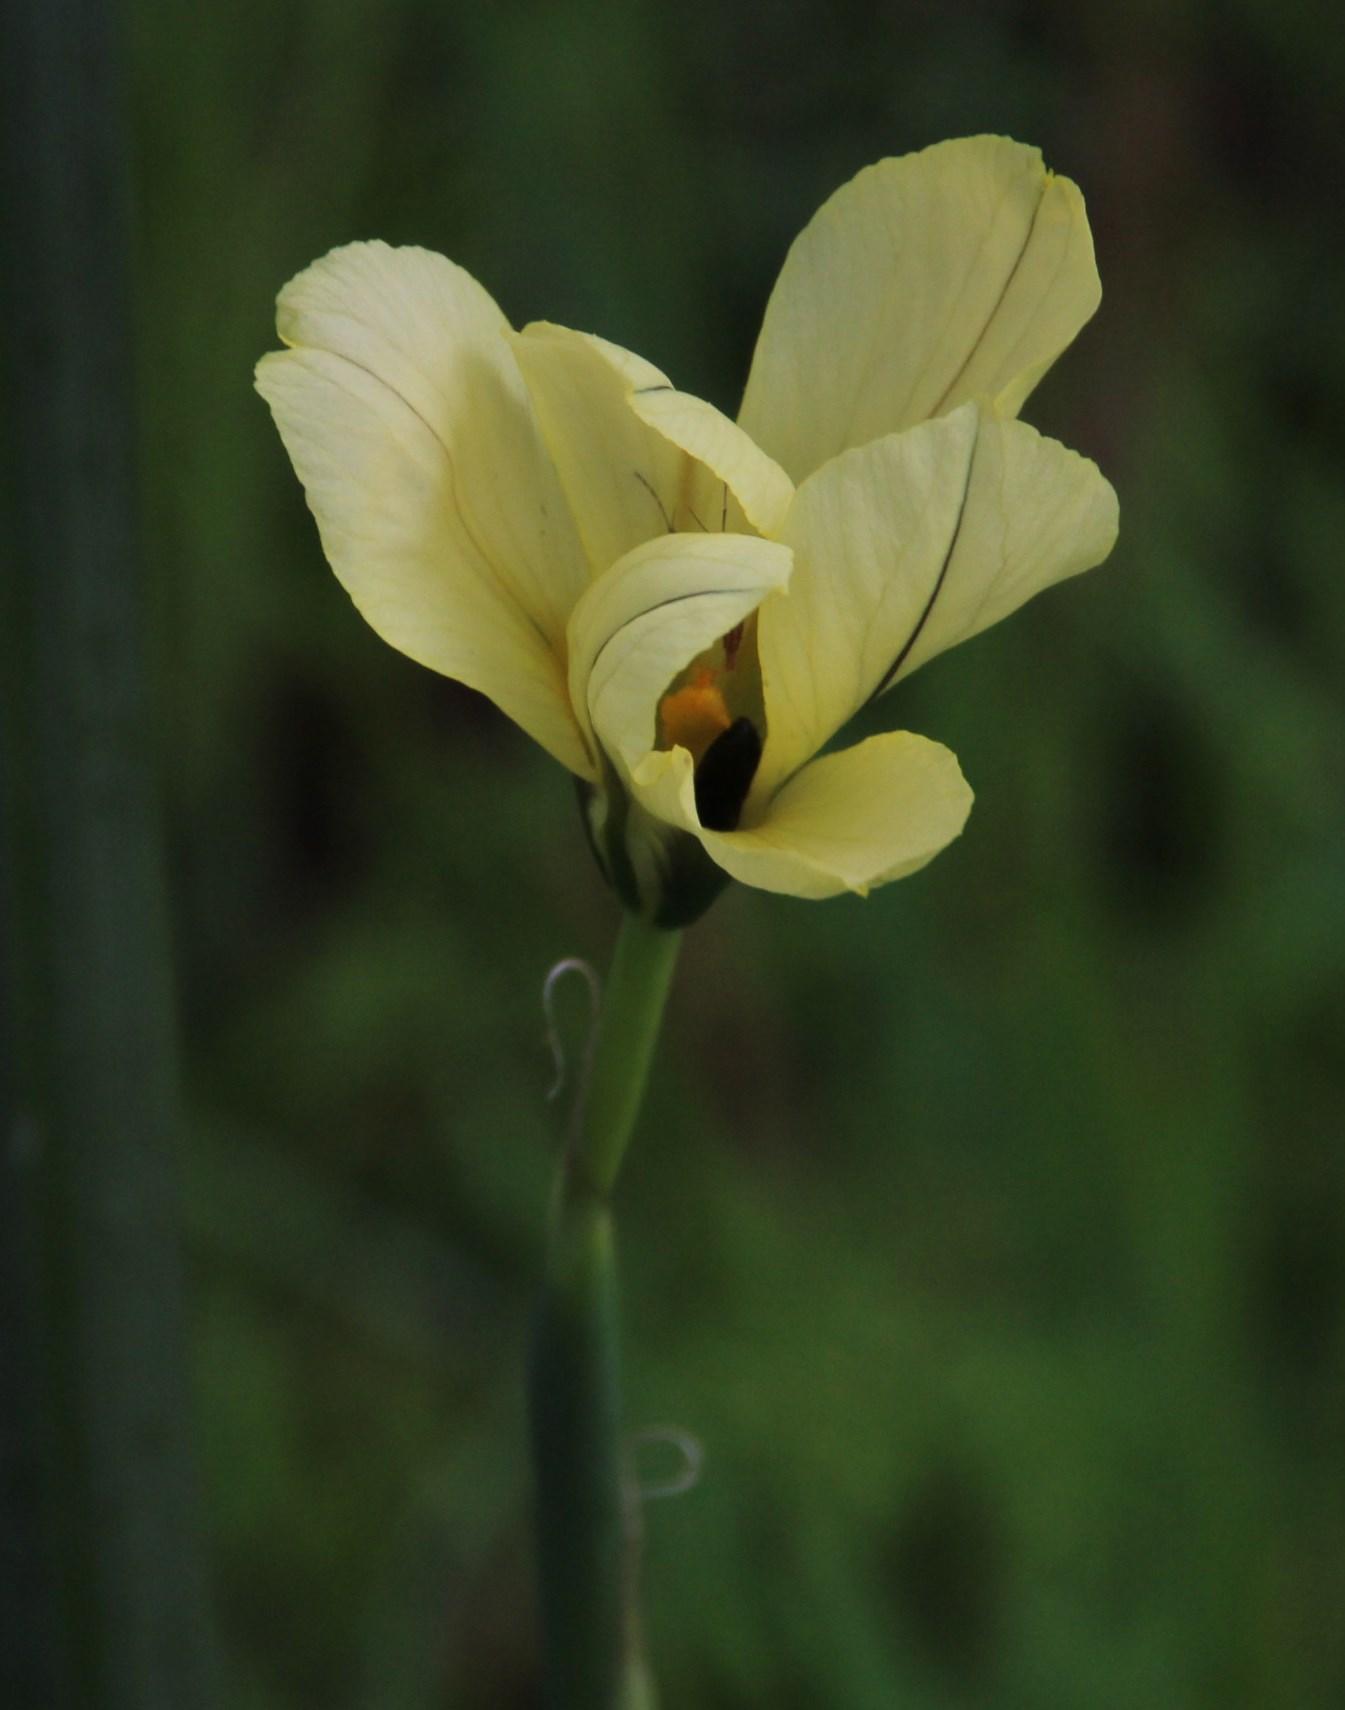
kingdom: Plantae
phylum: Tracheophyta
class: Liliopsida
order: Asparagales
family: Iridaceae
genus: Moraea
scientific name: Moraea collina
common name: Cape-tulip
